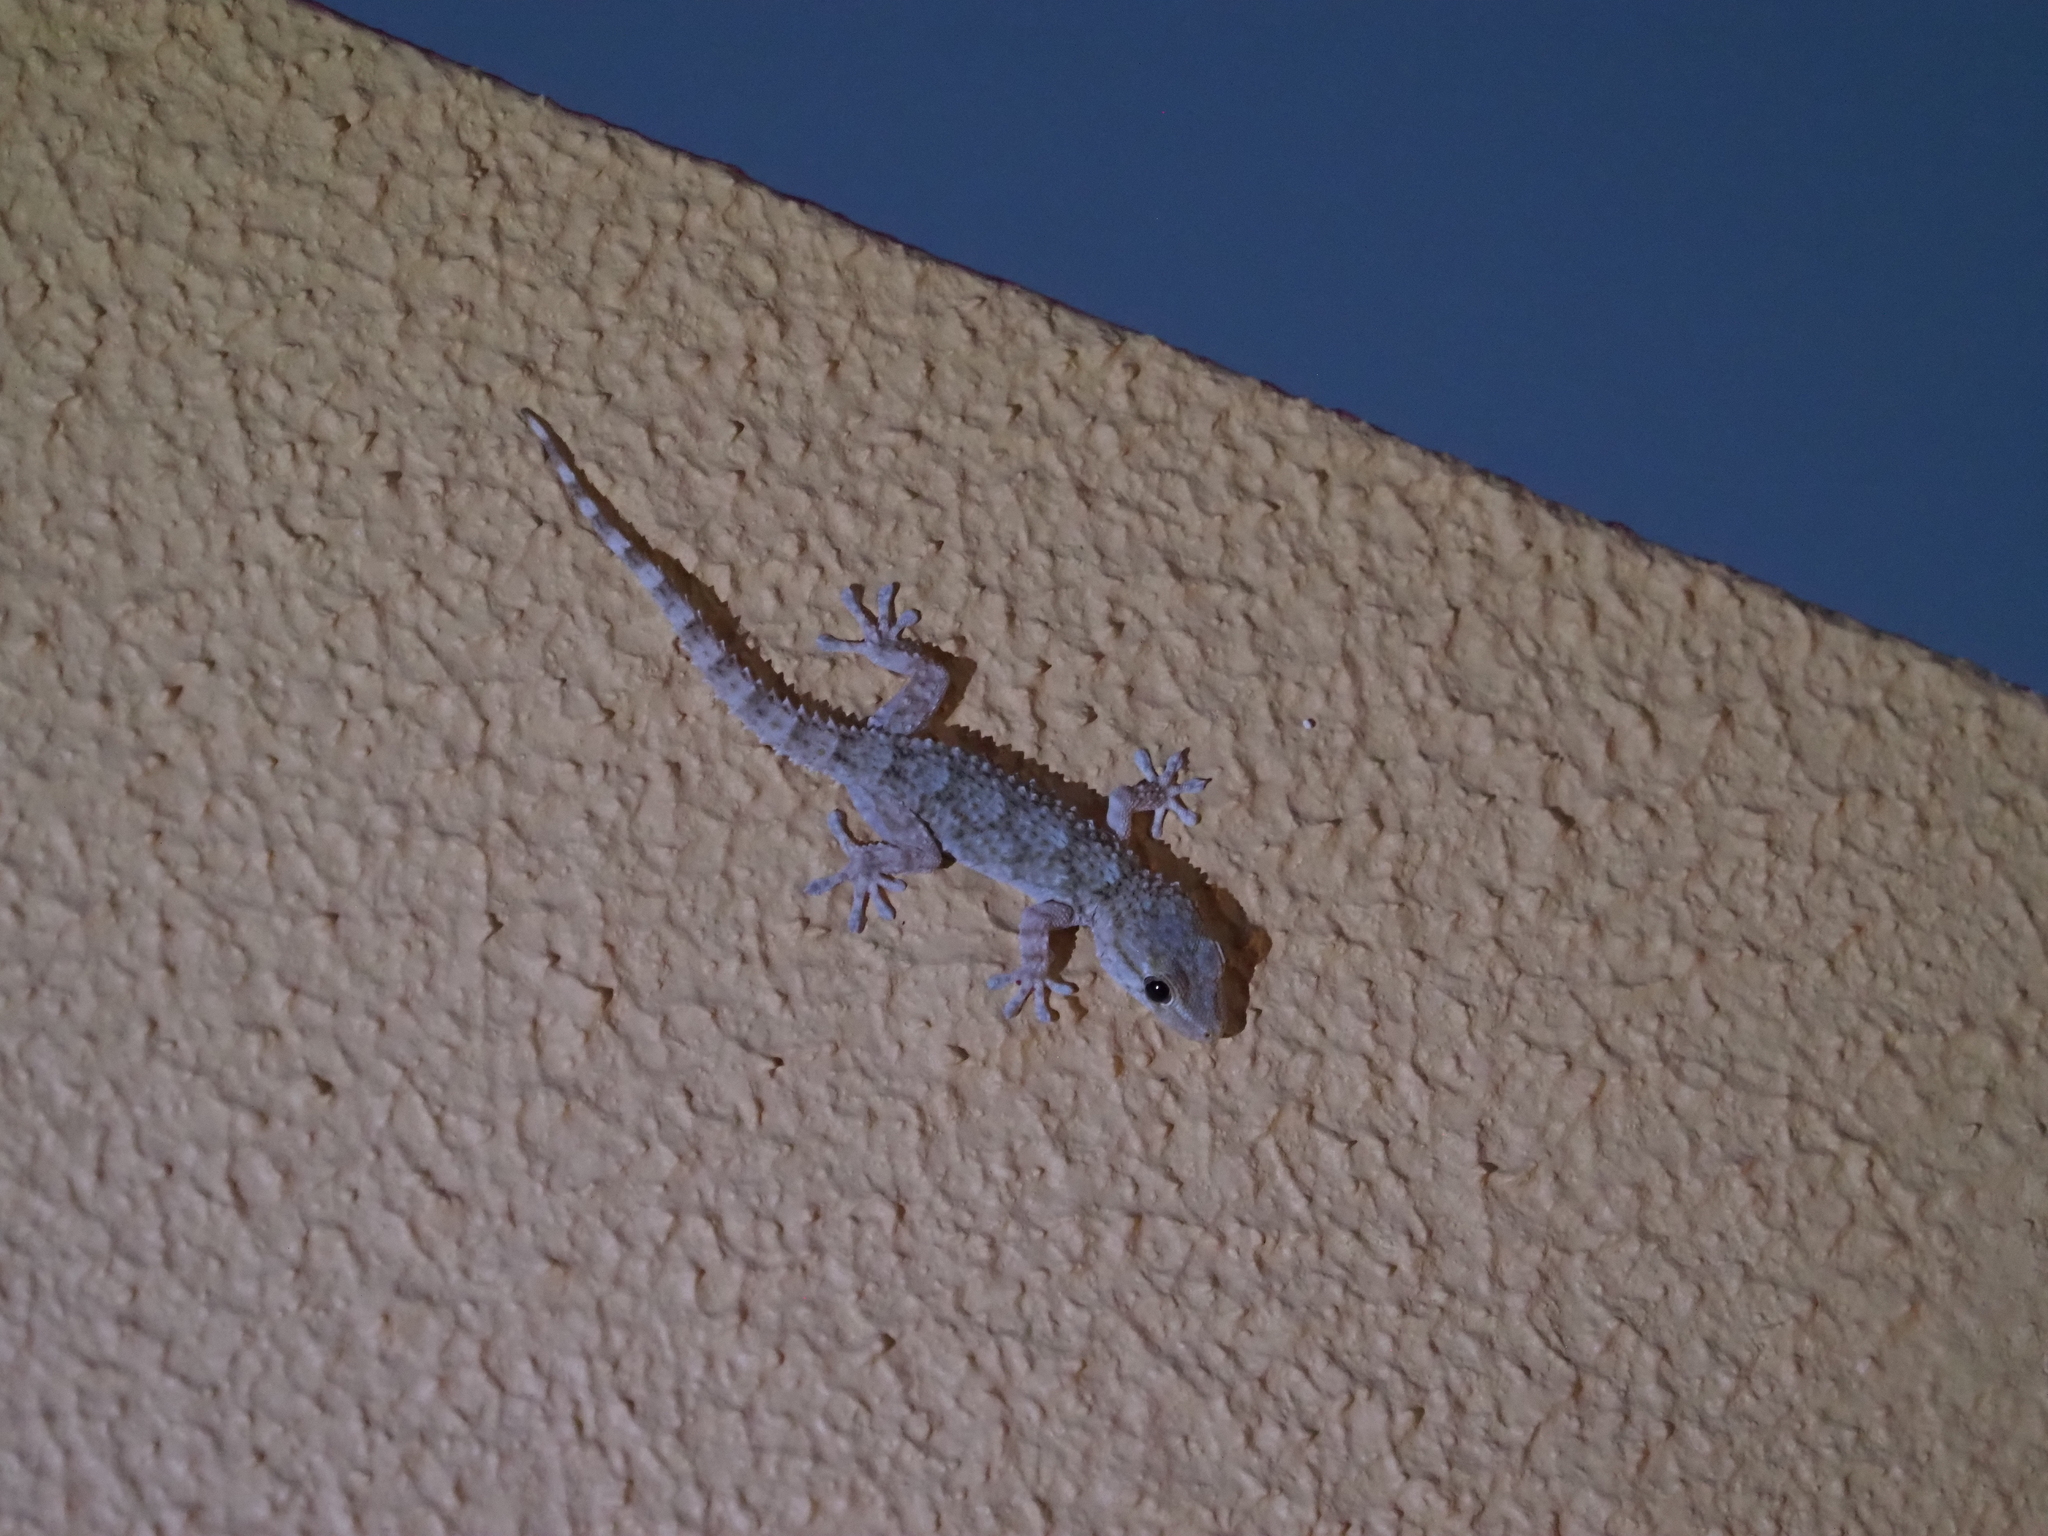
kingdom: Animalia
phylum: Chordata
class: Squamata
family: Phyllodactylidae
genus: Tarentola
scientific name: Tarentola mauritanica
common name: Moorish gecko
